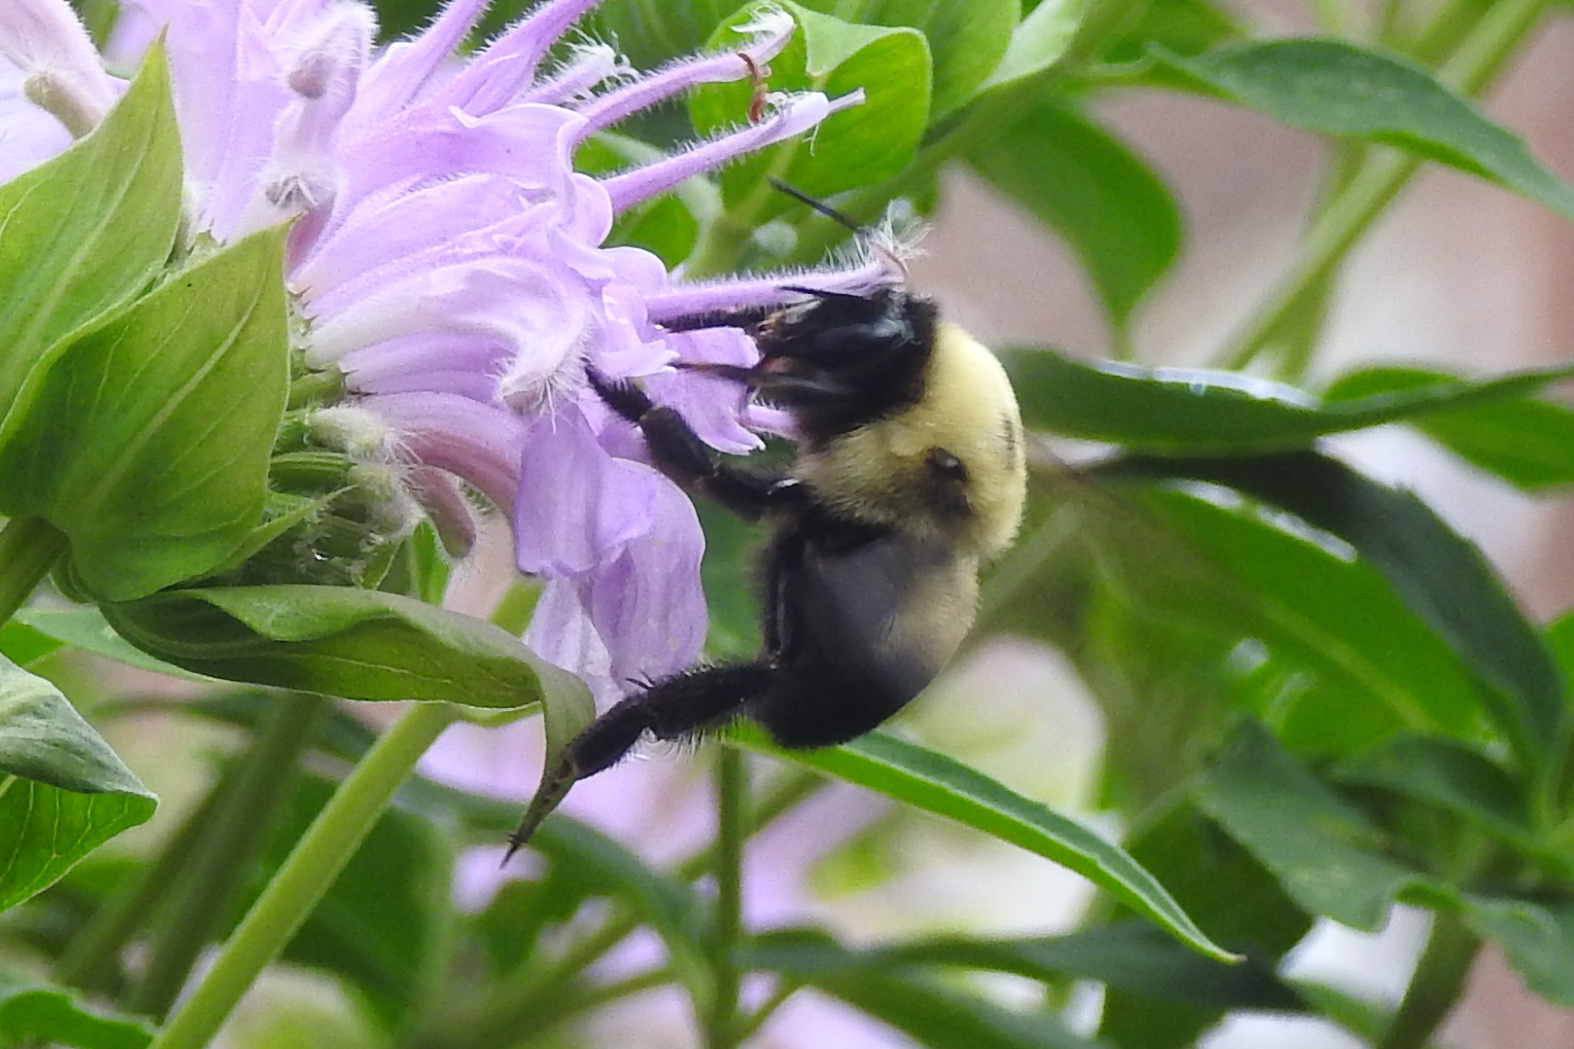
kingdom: Animalia
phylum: Arthropoda
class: Insecta
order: Hymenoptera
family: Apidae
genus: Bombus
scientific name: Bombus griseocollis
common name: Brown-belted bumble bee
